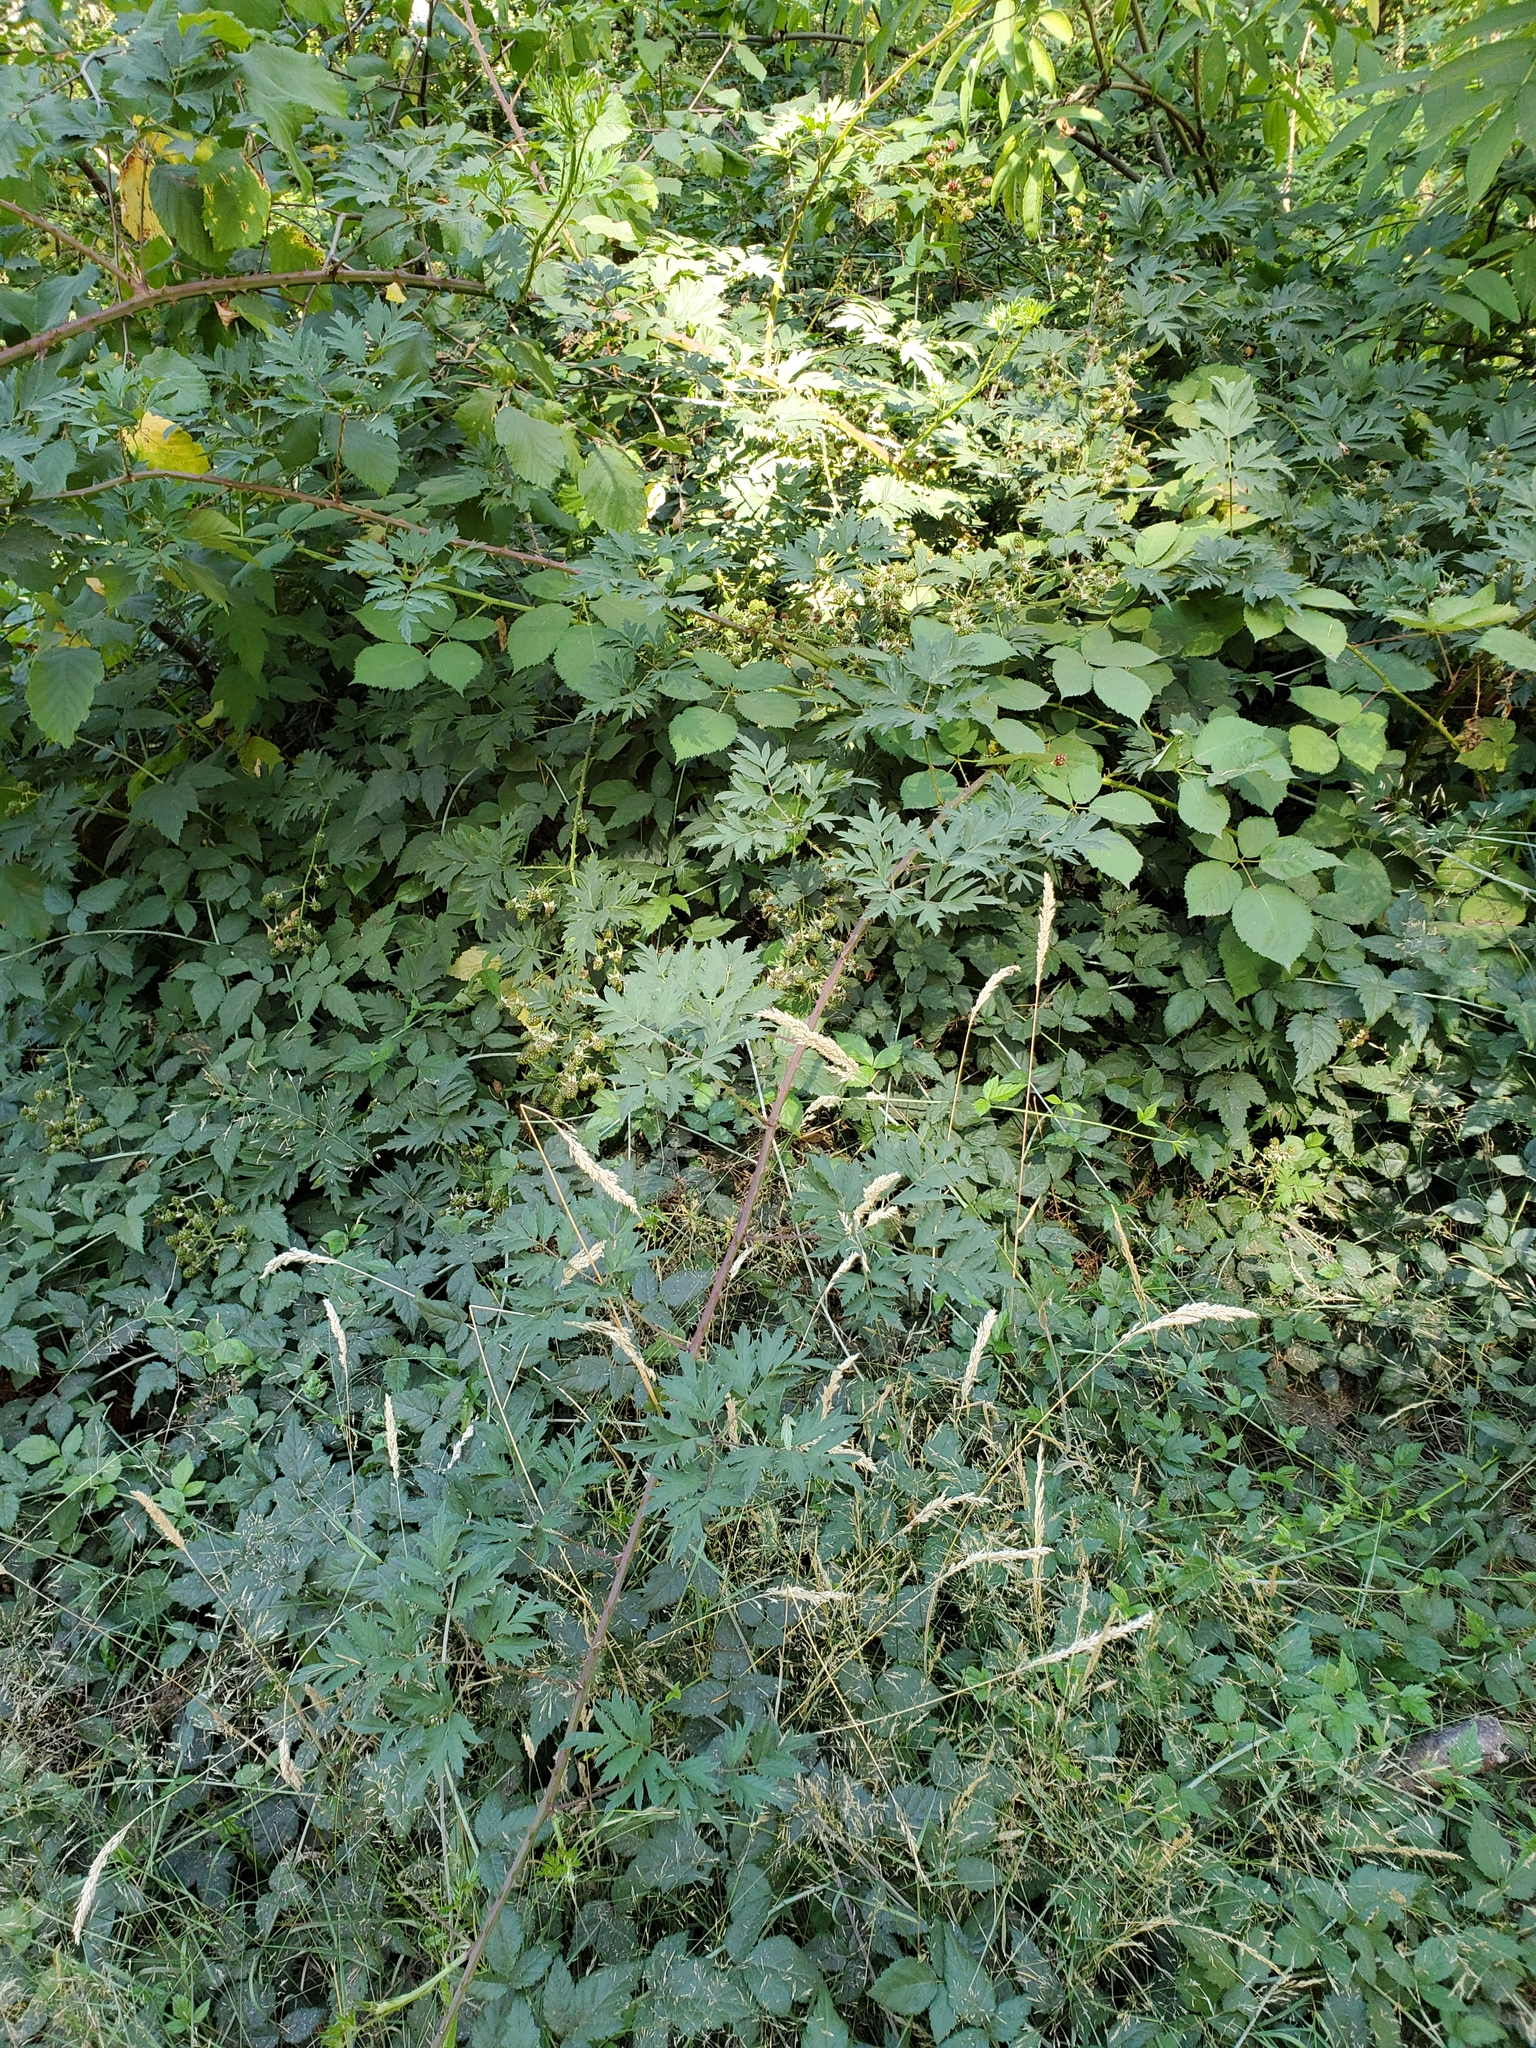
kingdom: Plantae
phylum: Tracheophyta
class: Magnoliopsida
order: Rosales
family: Rosaceae
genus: Rubus
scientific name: Rubus laciniatus
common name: Evergreen blackberry
